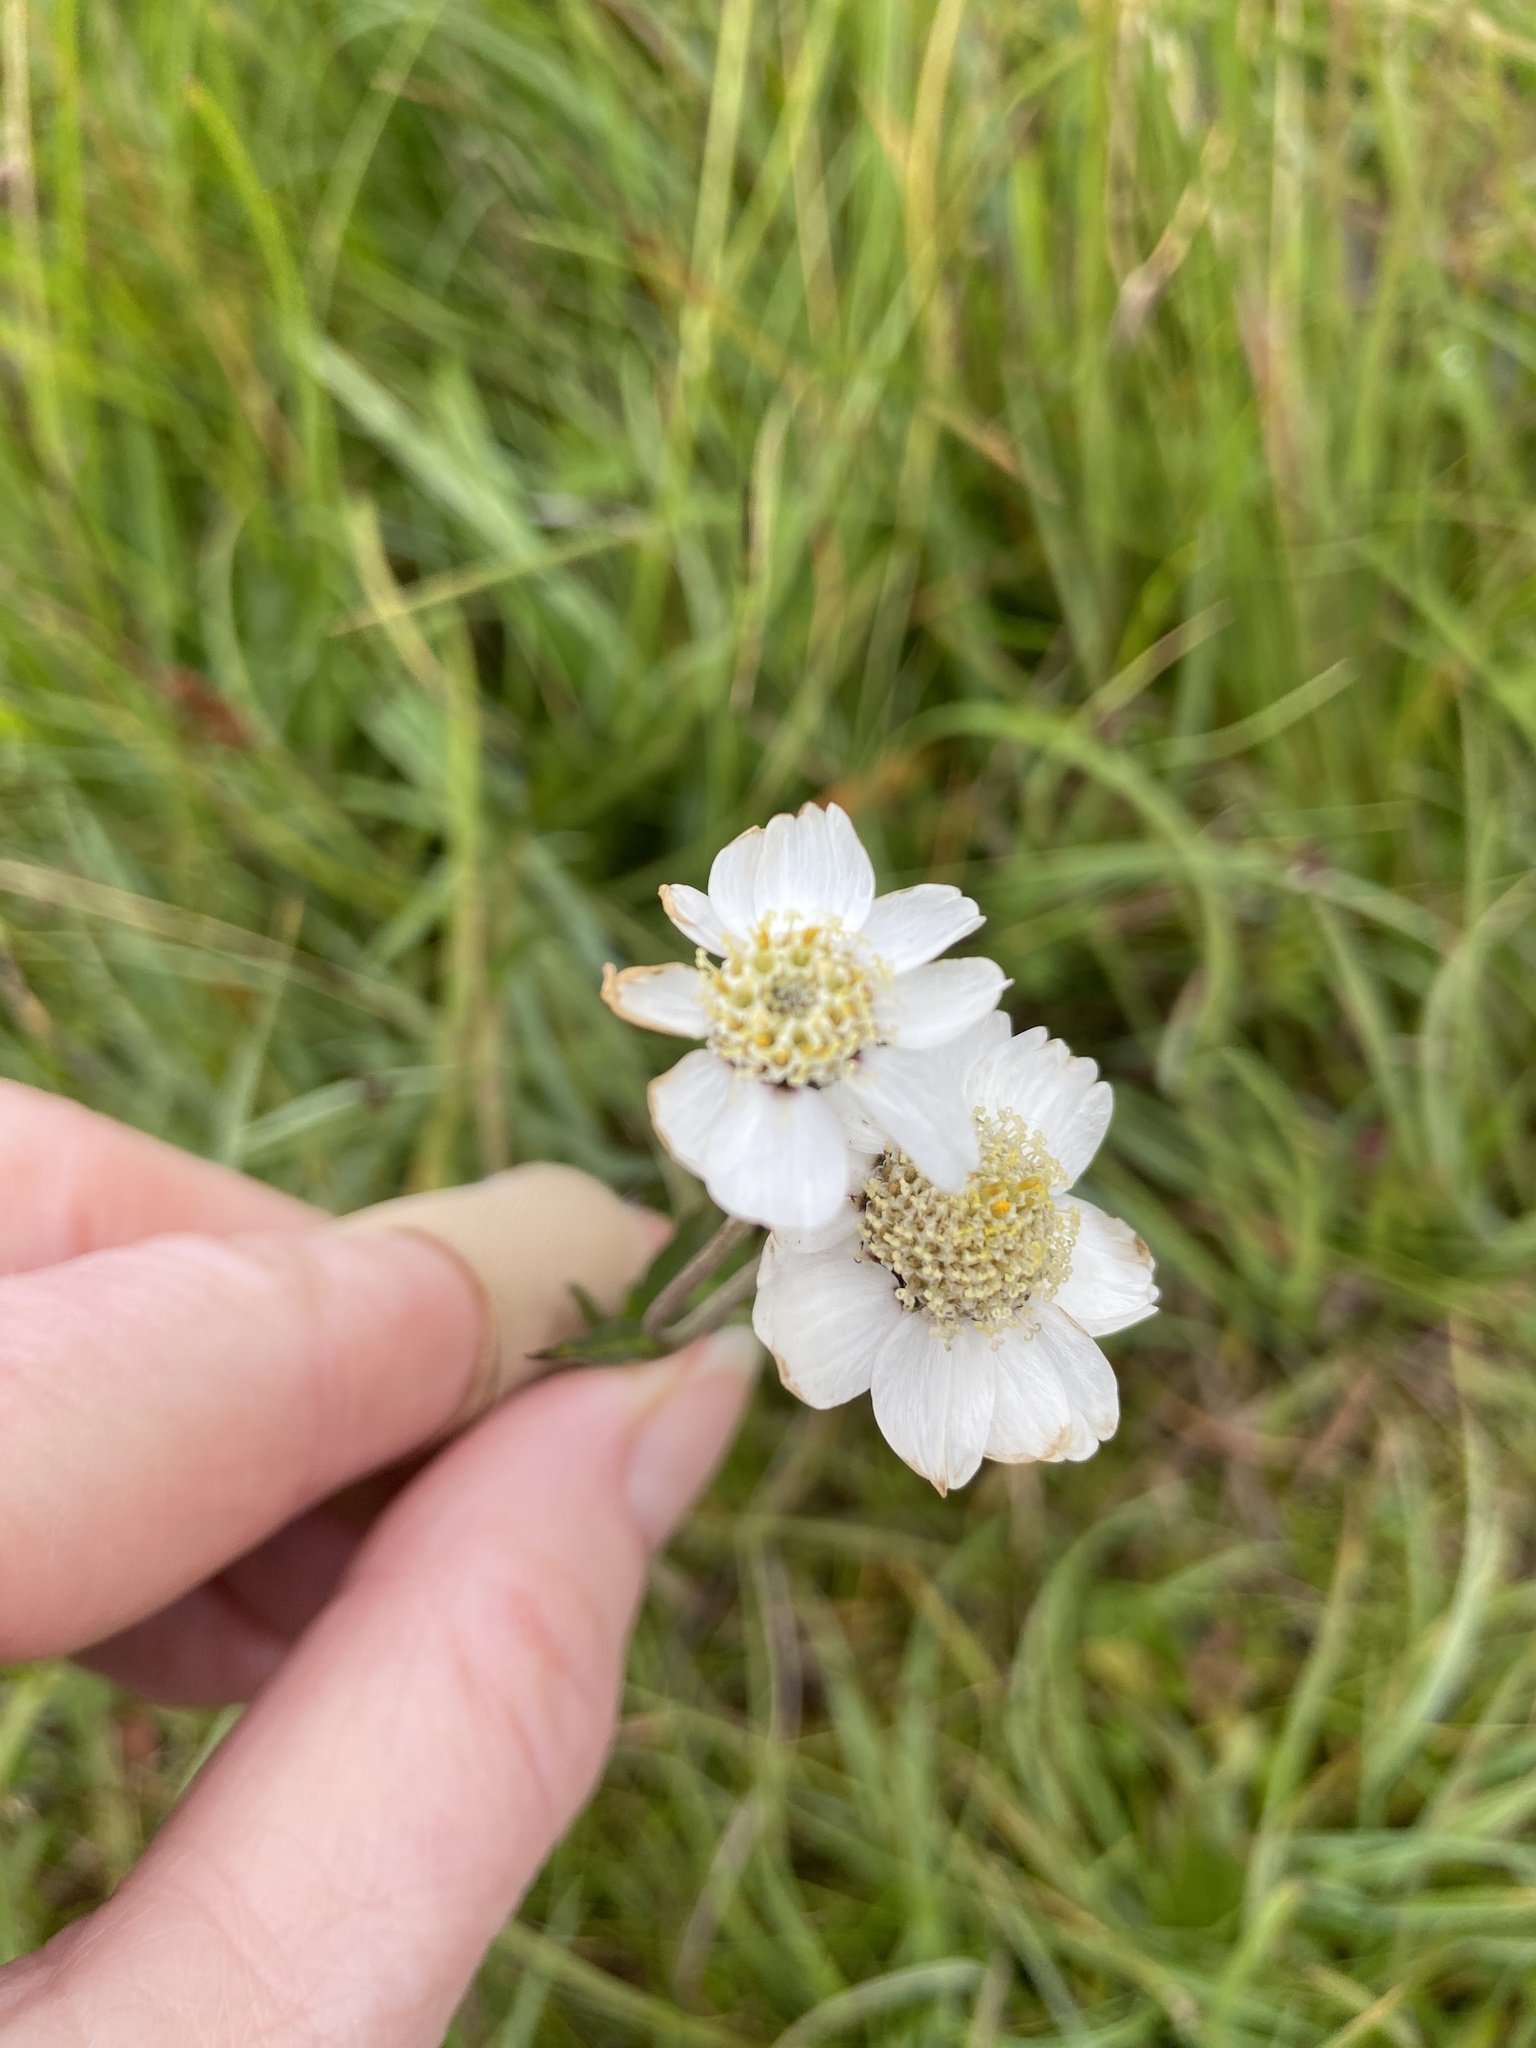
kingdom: Plantae
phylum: Tracheophyta
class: Magnoliopsida
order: Asterales
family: Asteraceae
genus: Achillea
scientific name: Achillea ptarmica
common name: Sneezeweed
